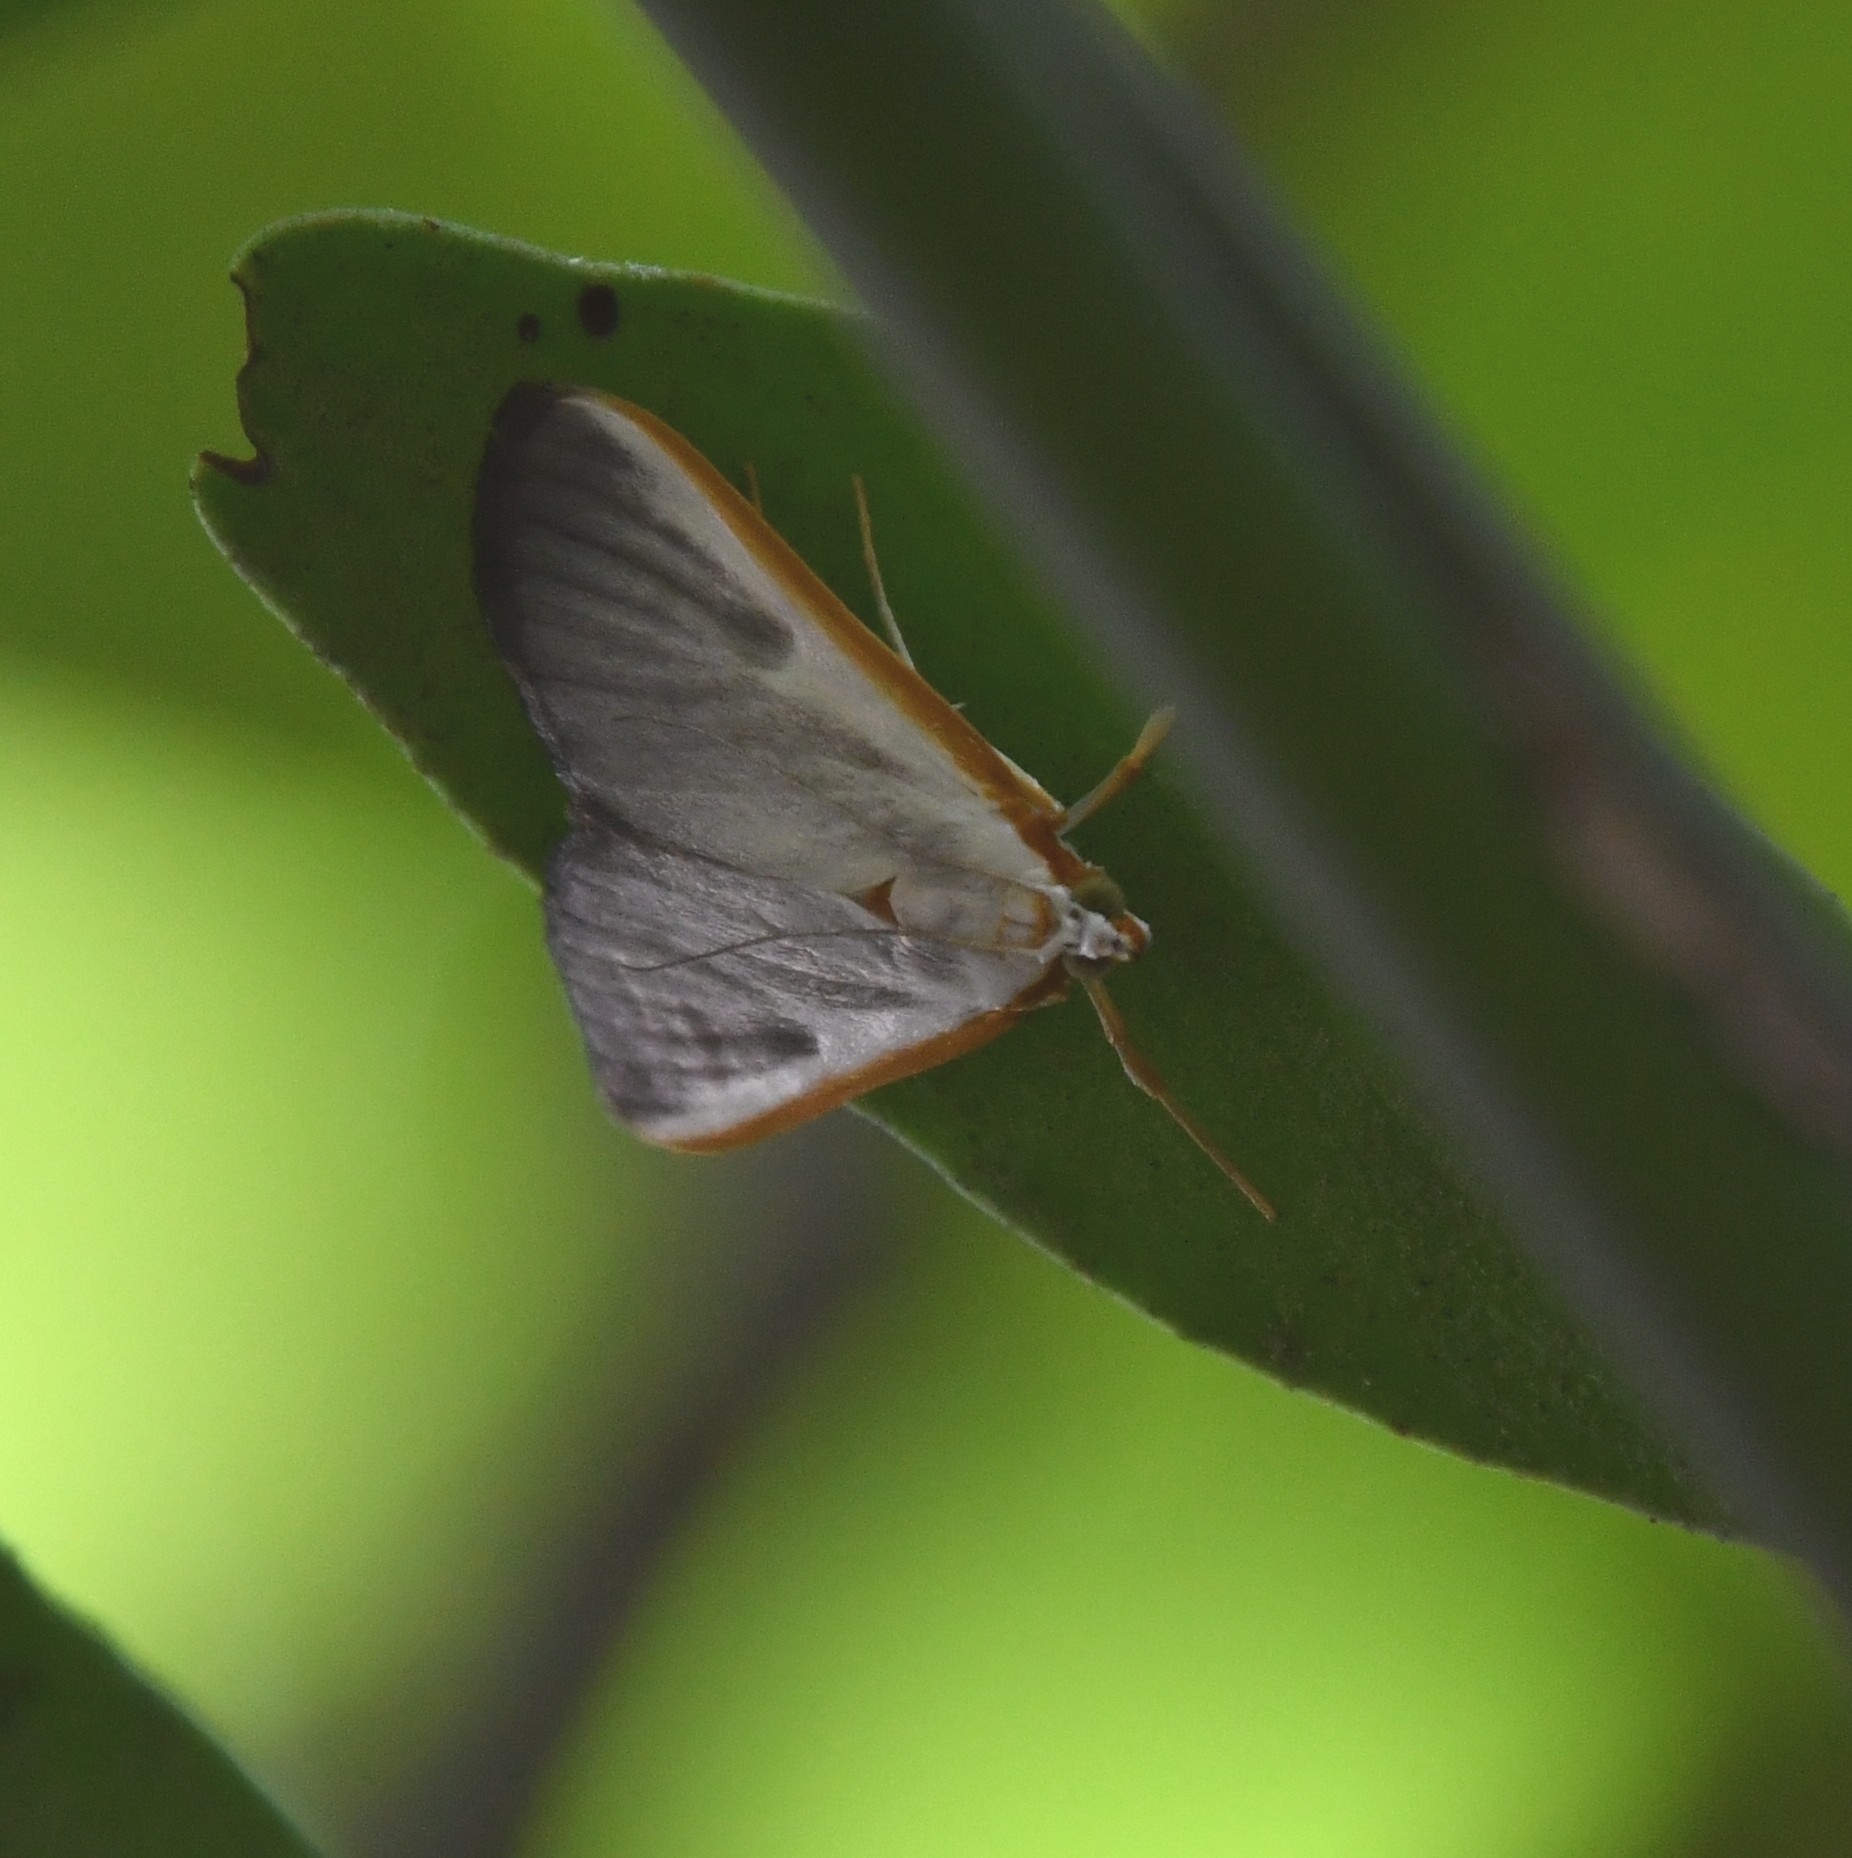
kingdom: Animalia
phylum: Arthropoda
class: Insecta
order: Lepidoptera
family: Crambidae
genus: Pylartes
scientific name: Pylartes subcostalis
